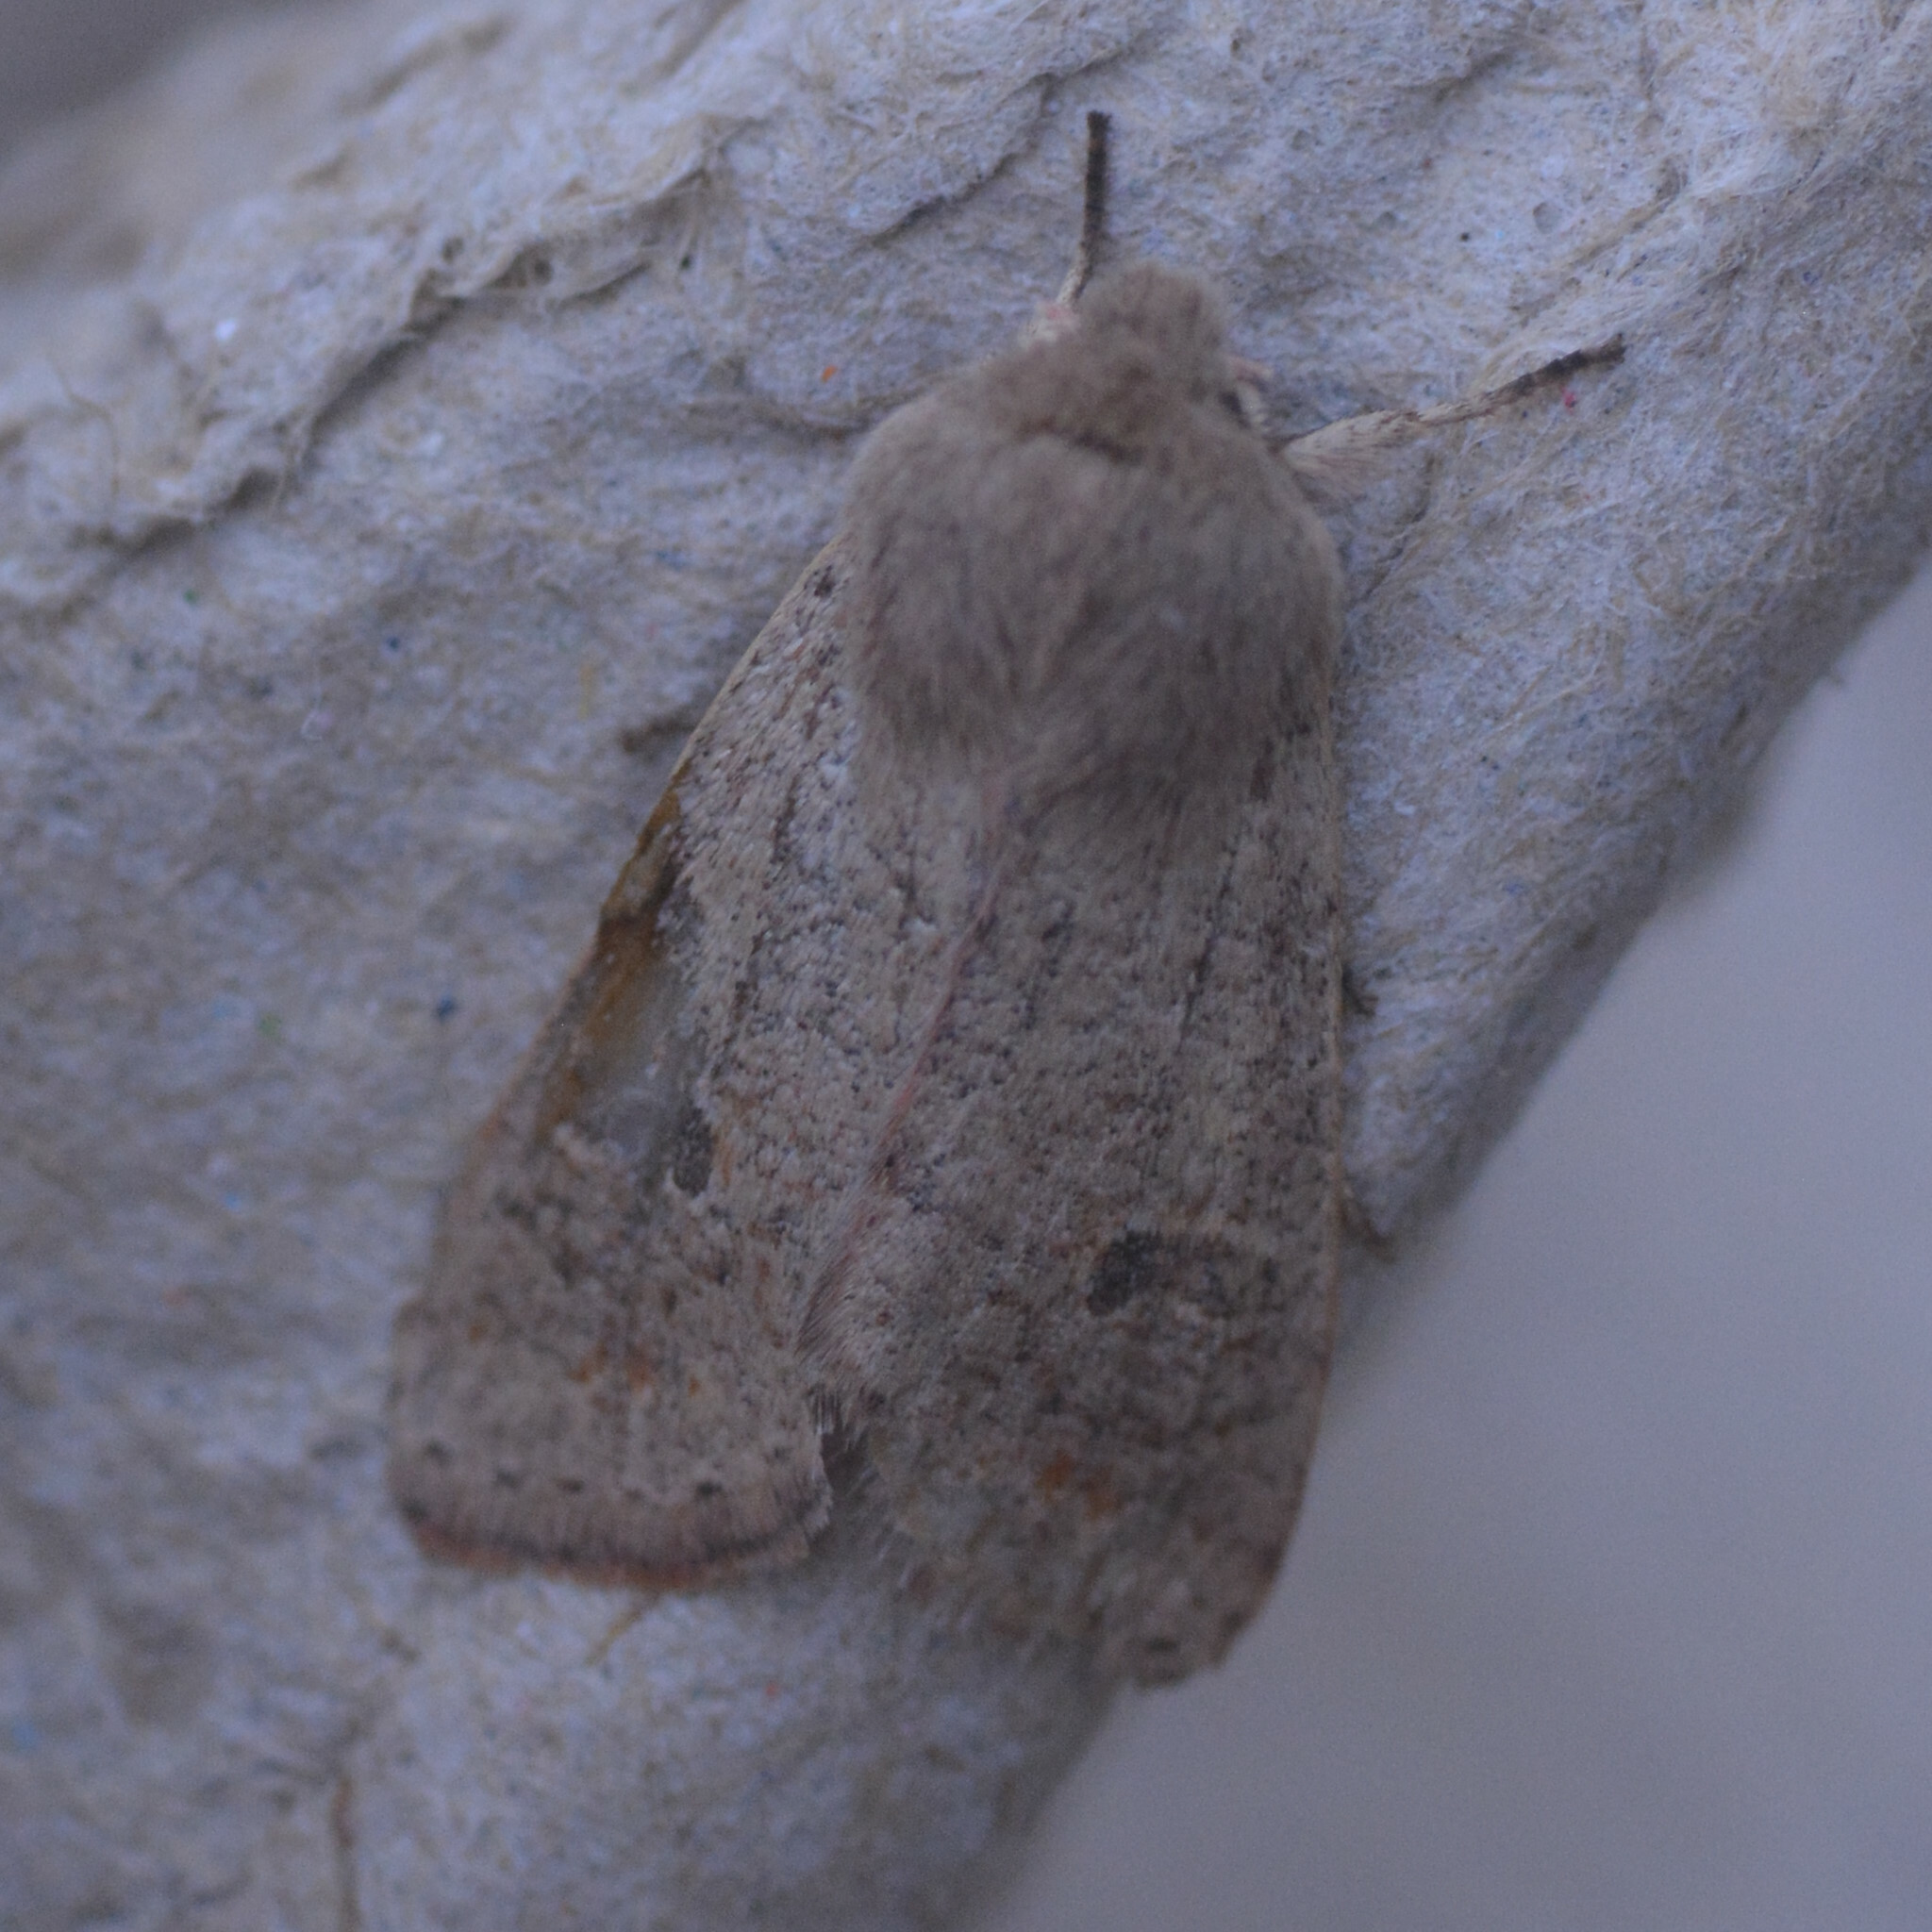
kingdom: Animalia
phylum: Arthropoda
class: Insecta
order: Lepidoptera
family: Noctuidae
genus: Orthosia
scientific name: Orthosia cruda
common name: Small quaker
